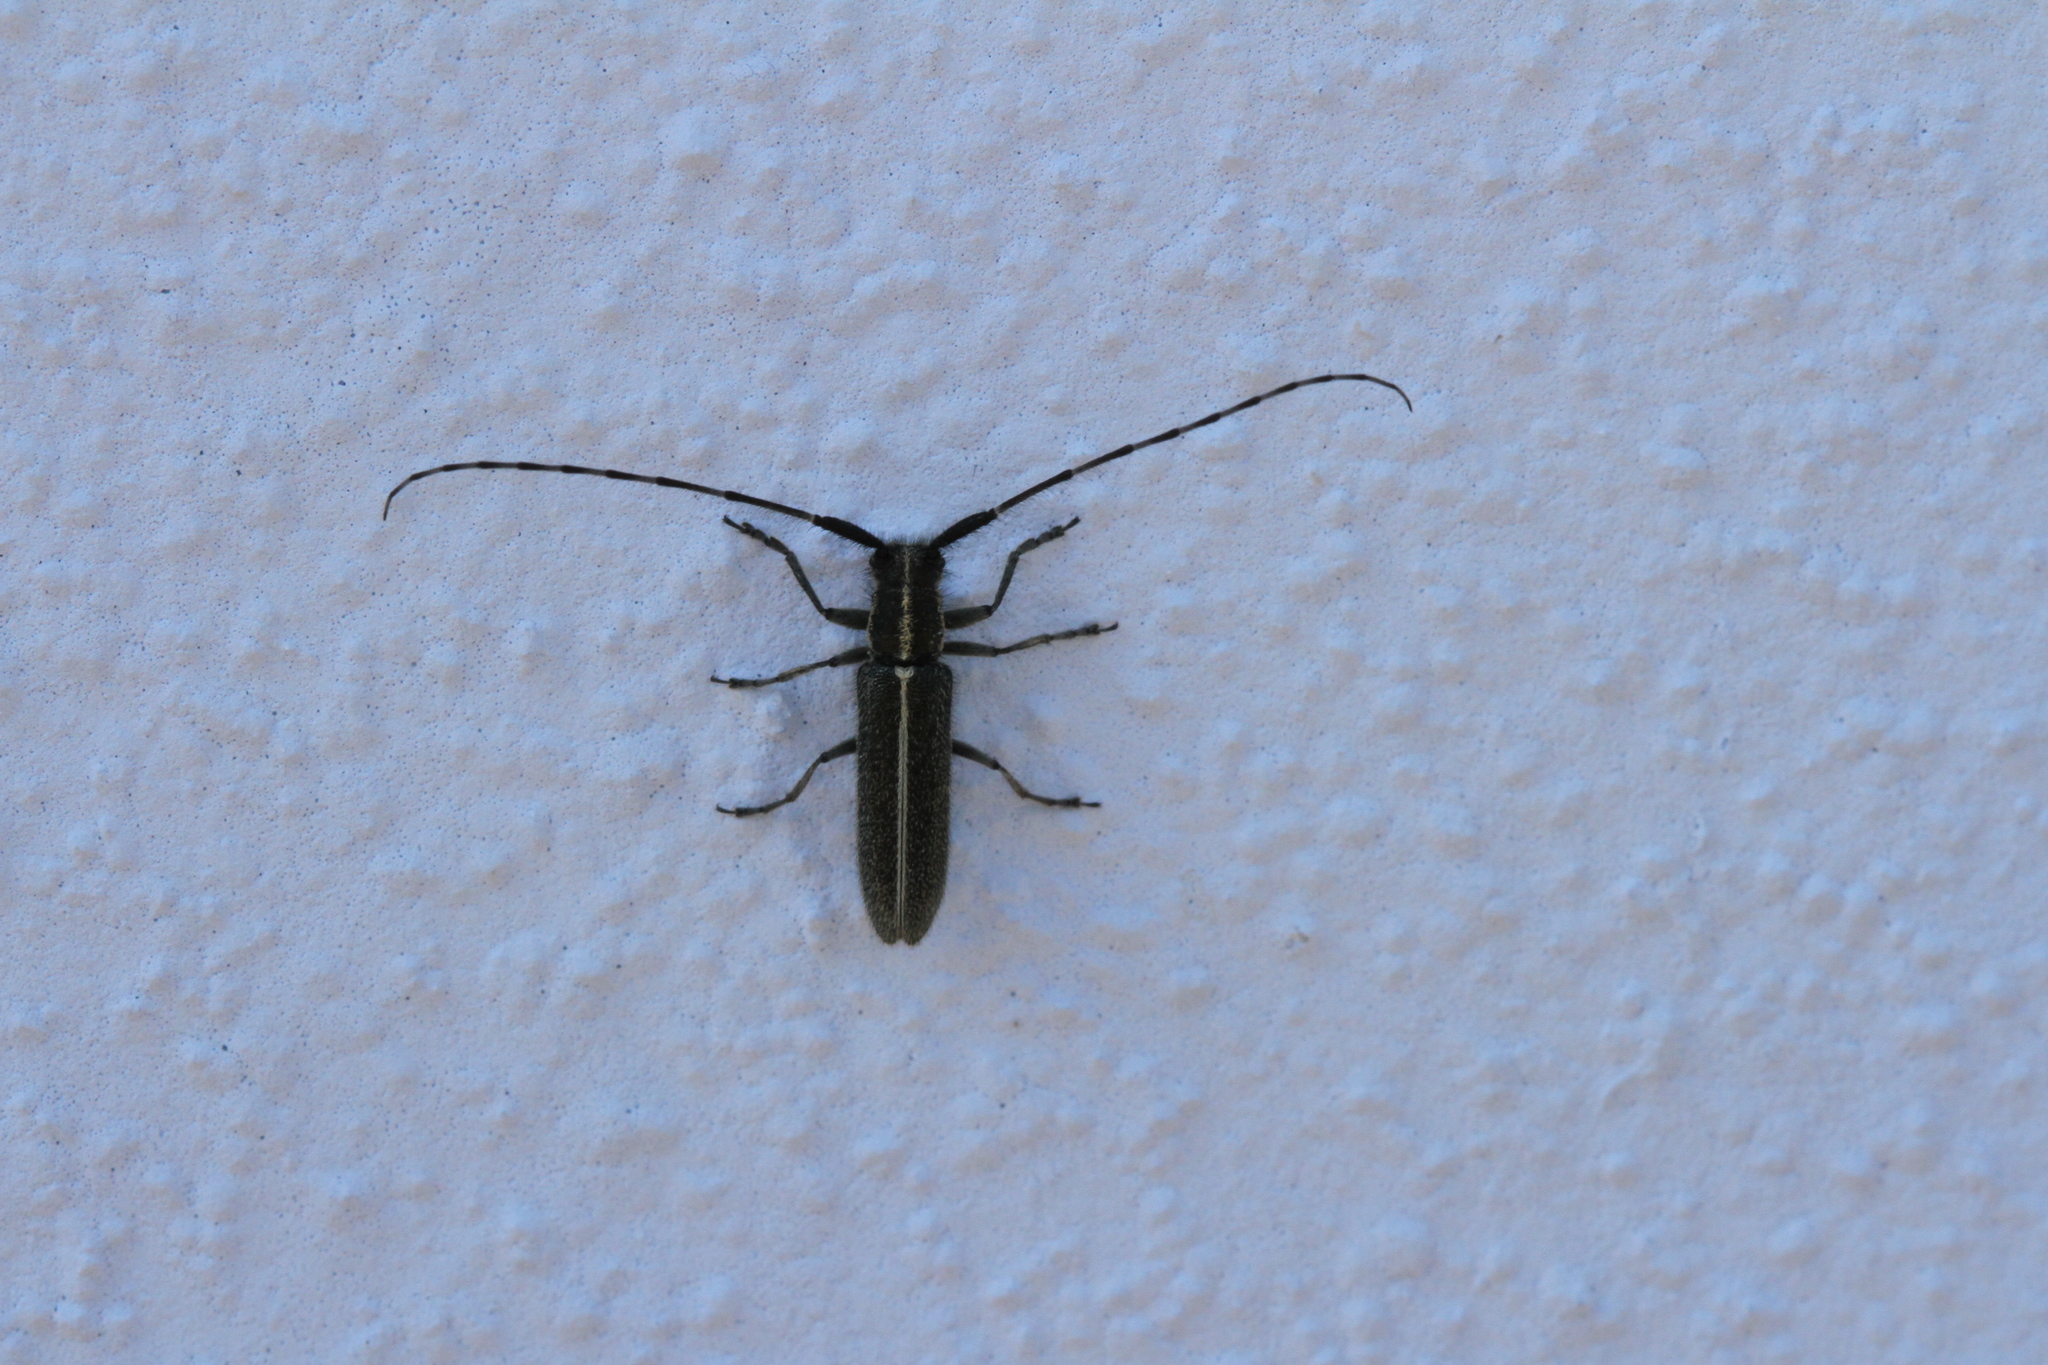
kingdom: Animalia
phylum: Arthropoda
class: Insecta
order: Coleoptera
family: Cerambycidae
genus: Agapanthia
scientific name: Agapanthia cardui
